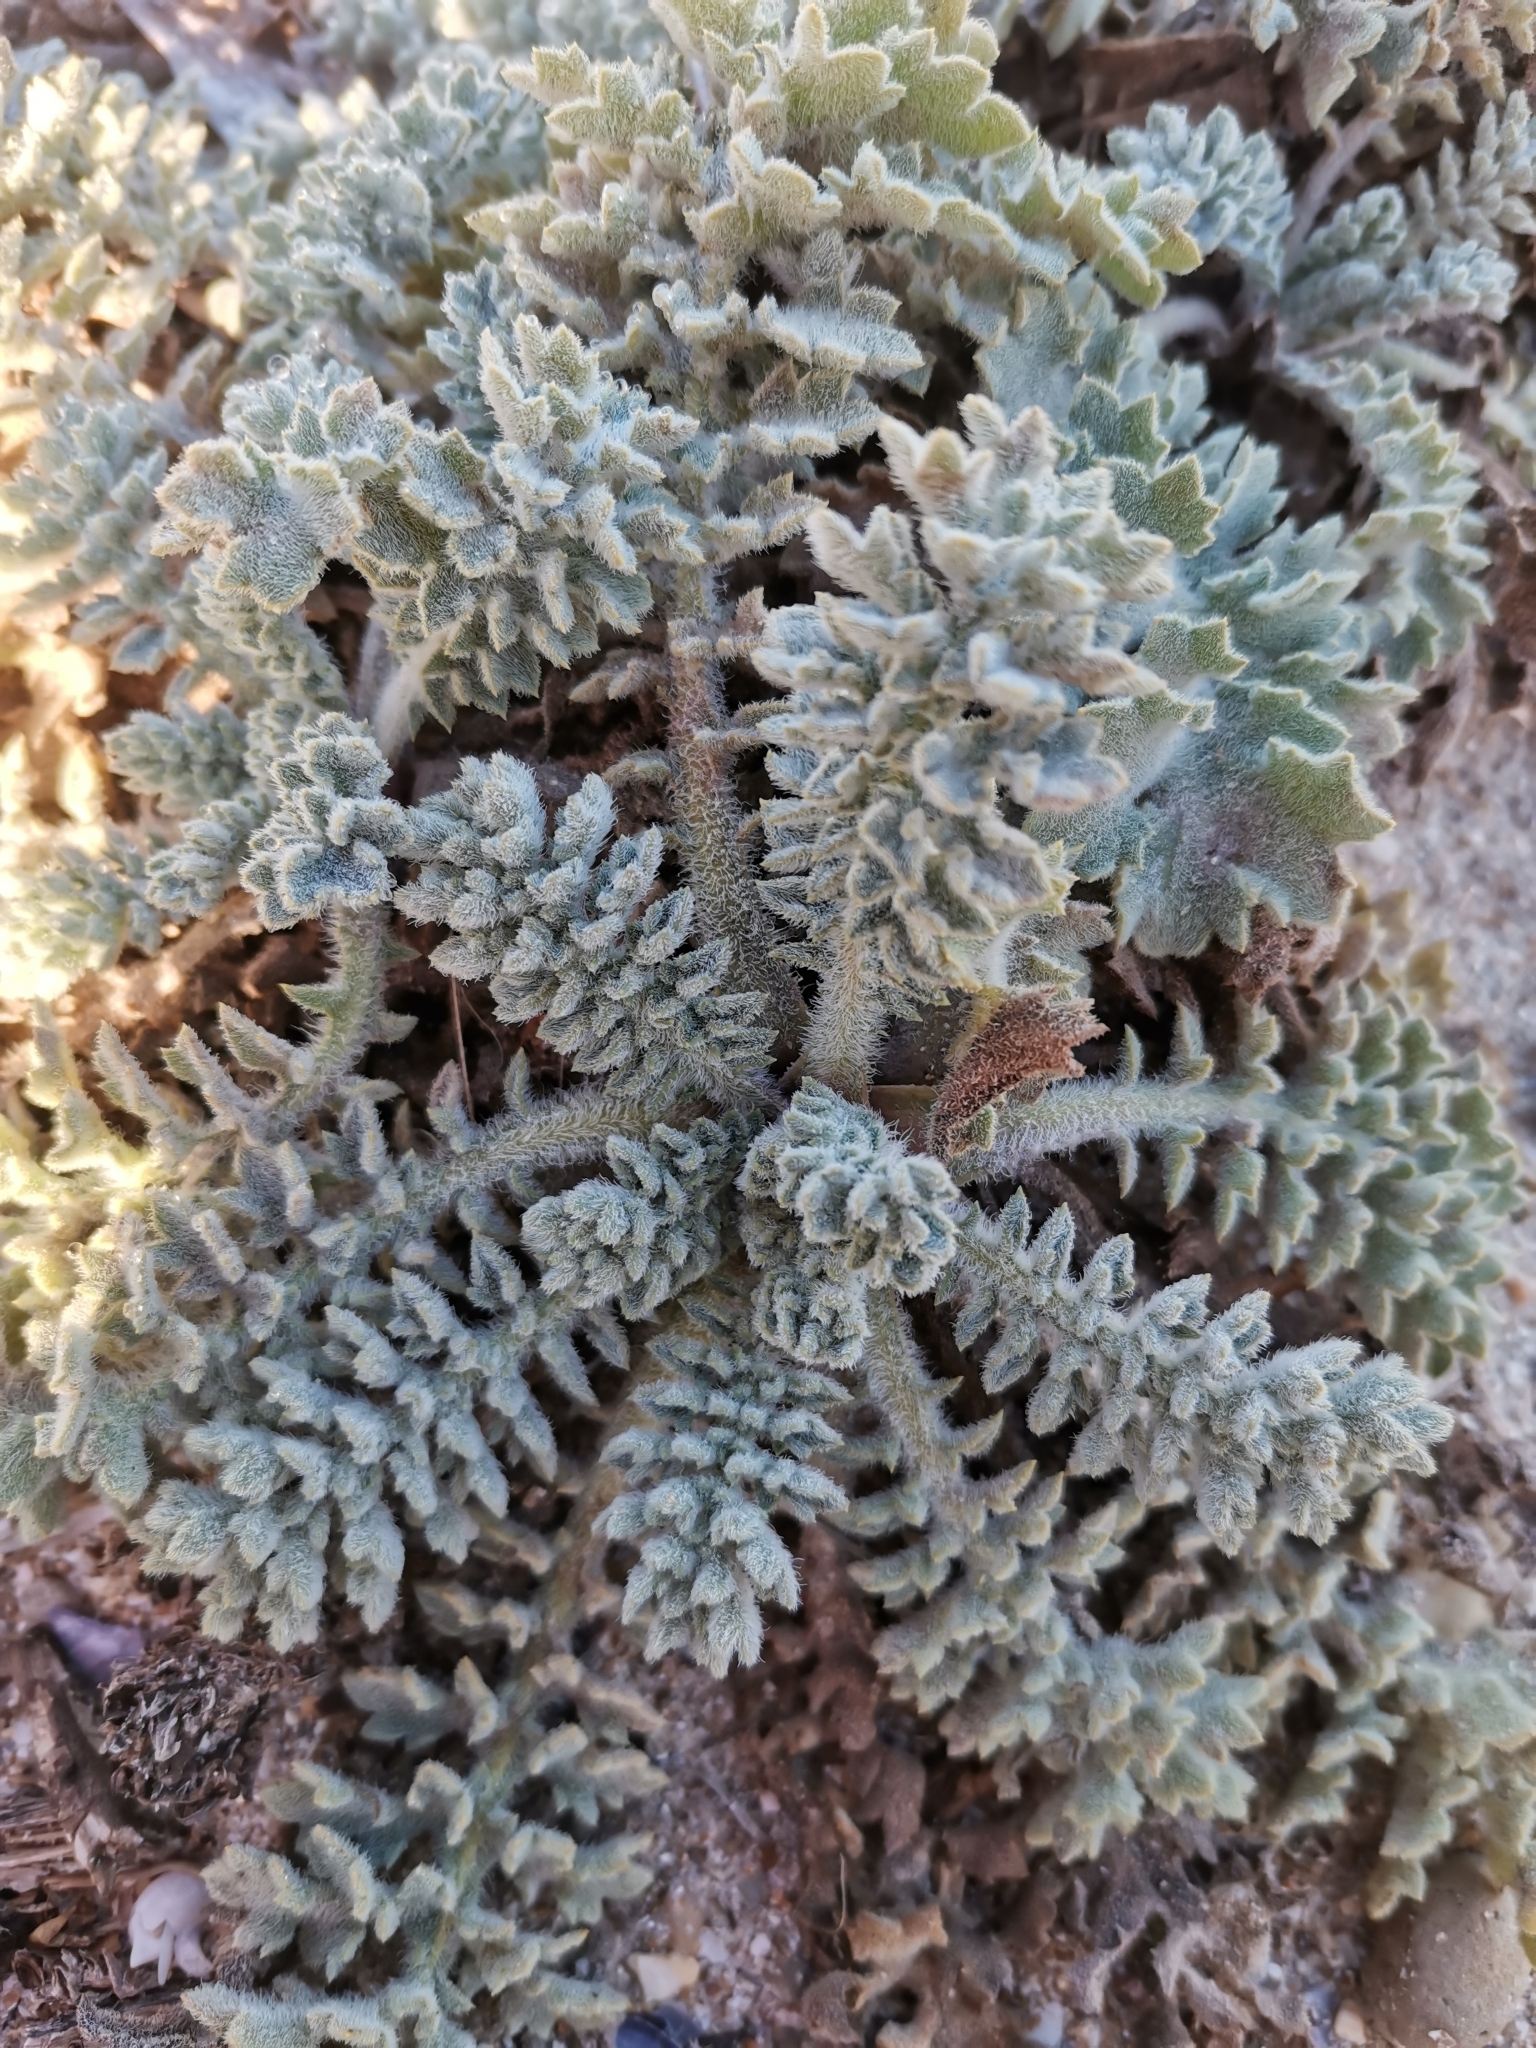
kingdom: Plantae
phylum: Tracheophyta
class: Magnoliopsida
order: Ranunculales
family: Papaveraceae
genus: Glaucium
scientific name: Glaucium flavum
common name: Yellow horned-poppy
